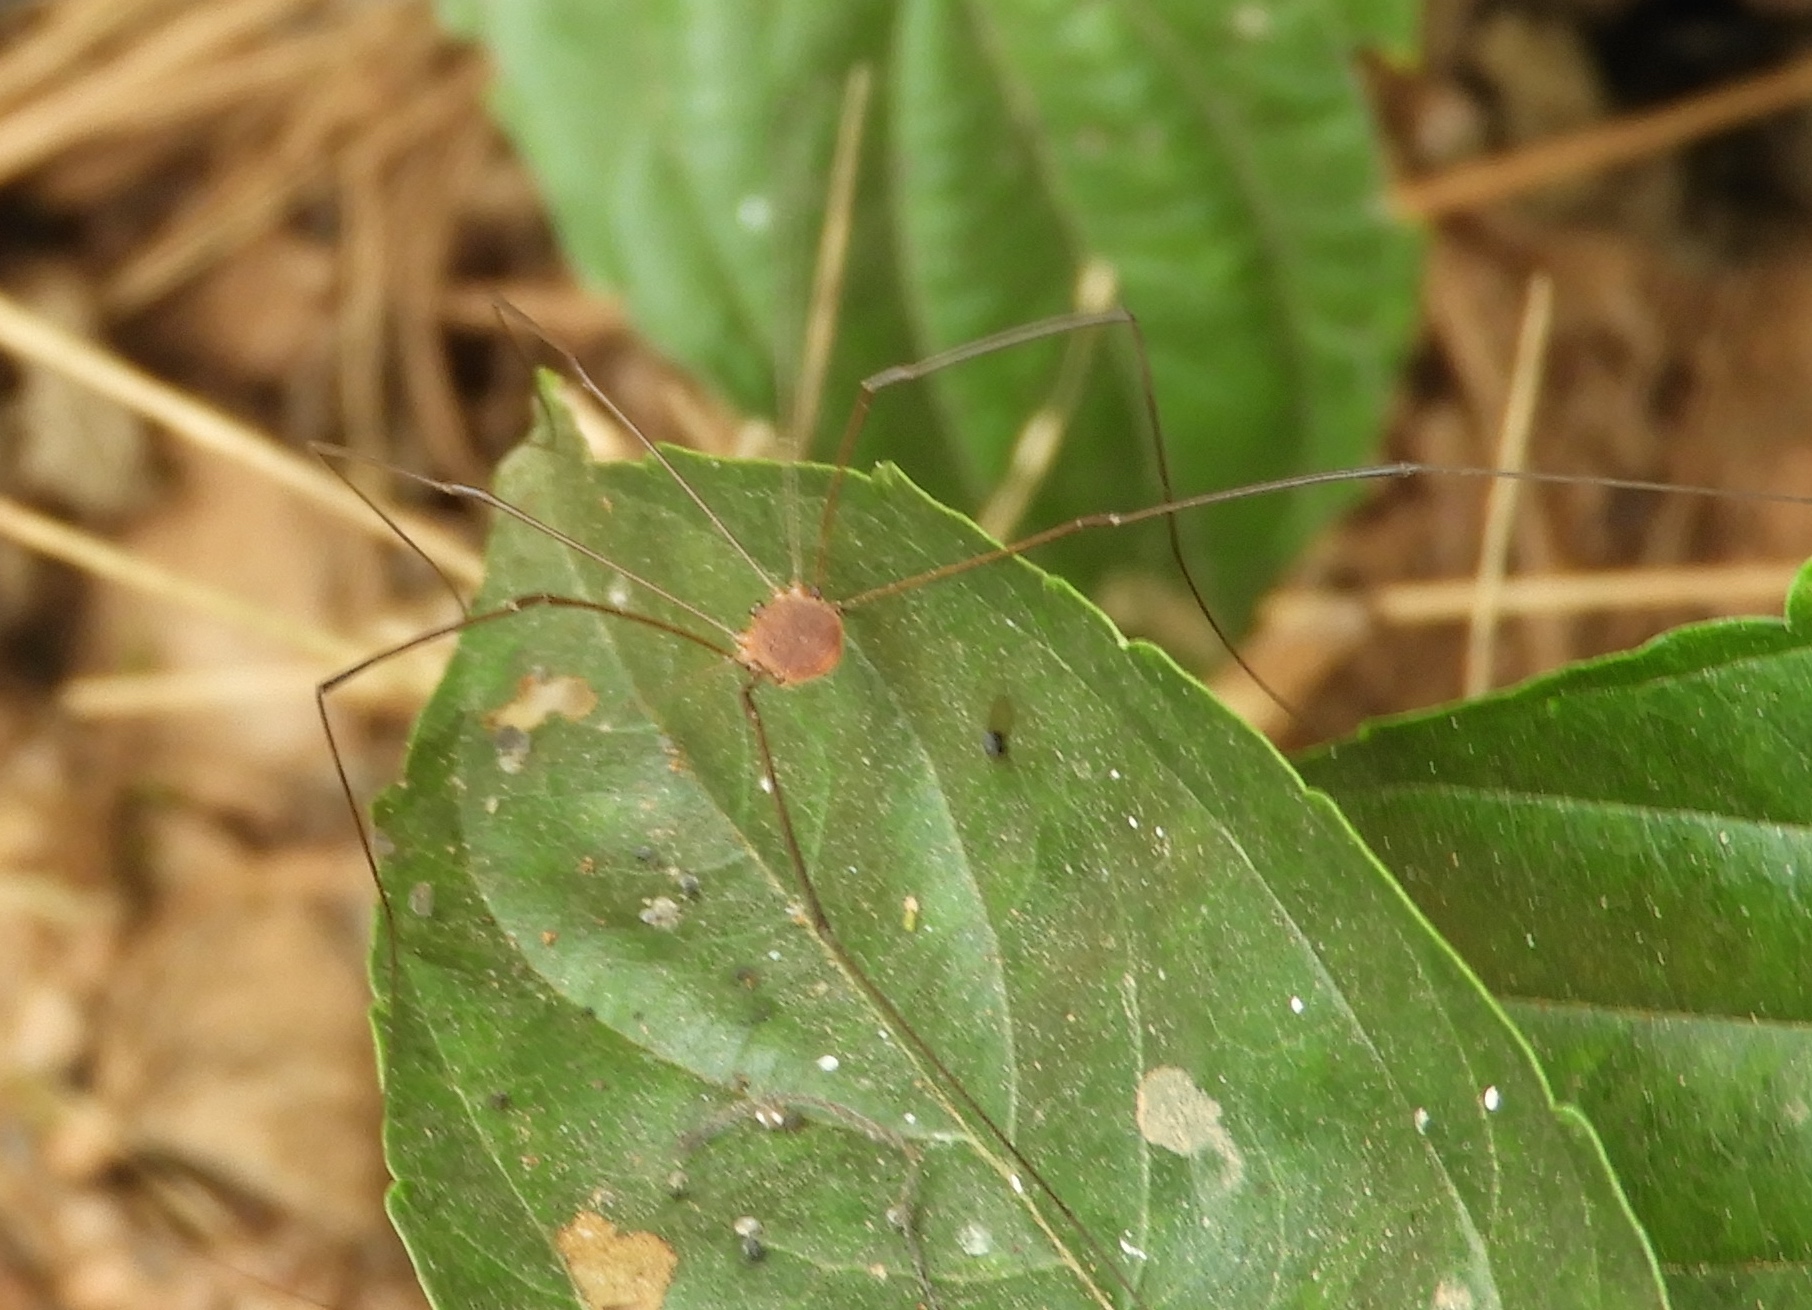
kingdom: Animalia
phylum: Arthropoda
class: Arachnida
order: Opiliones
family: Sclerosomatidae
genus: Leiobunum
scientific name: Leiobunum
